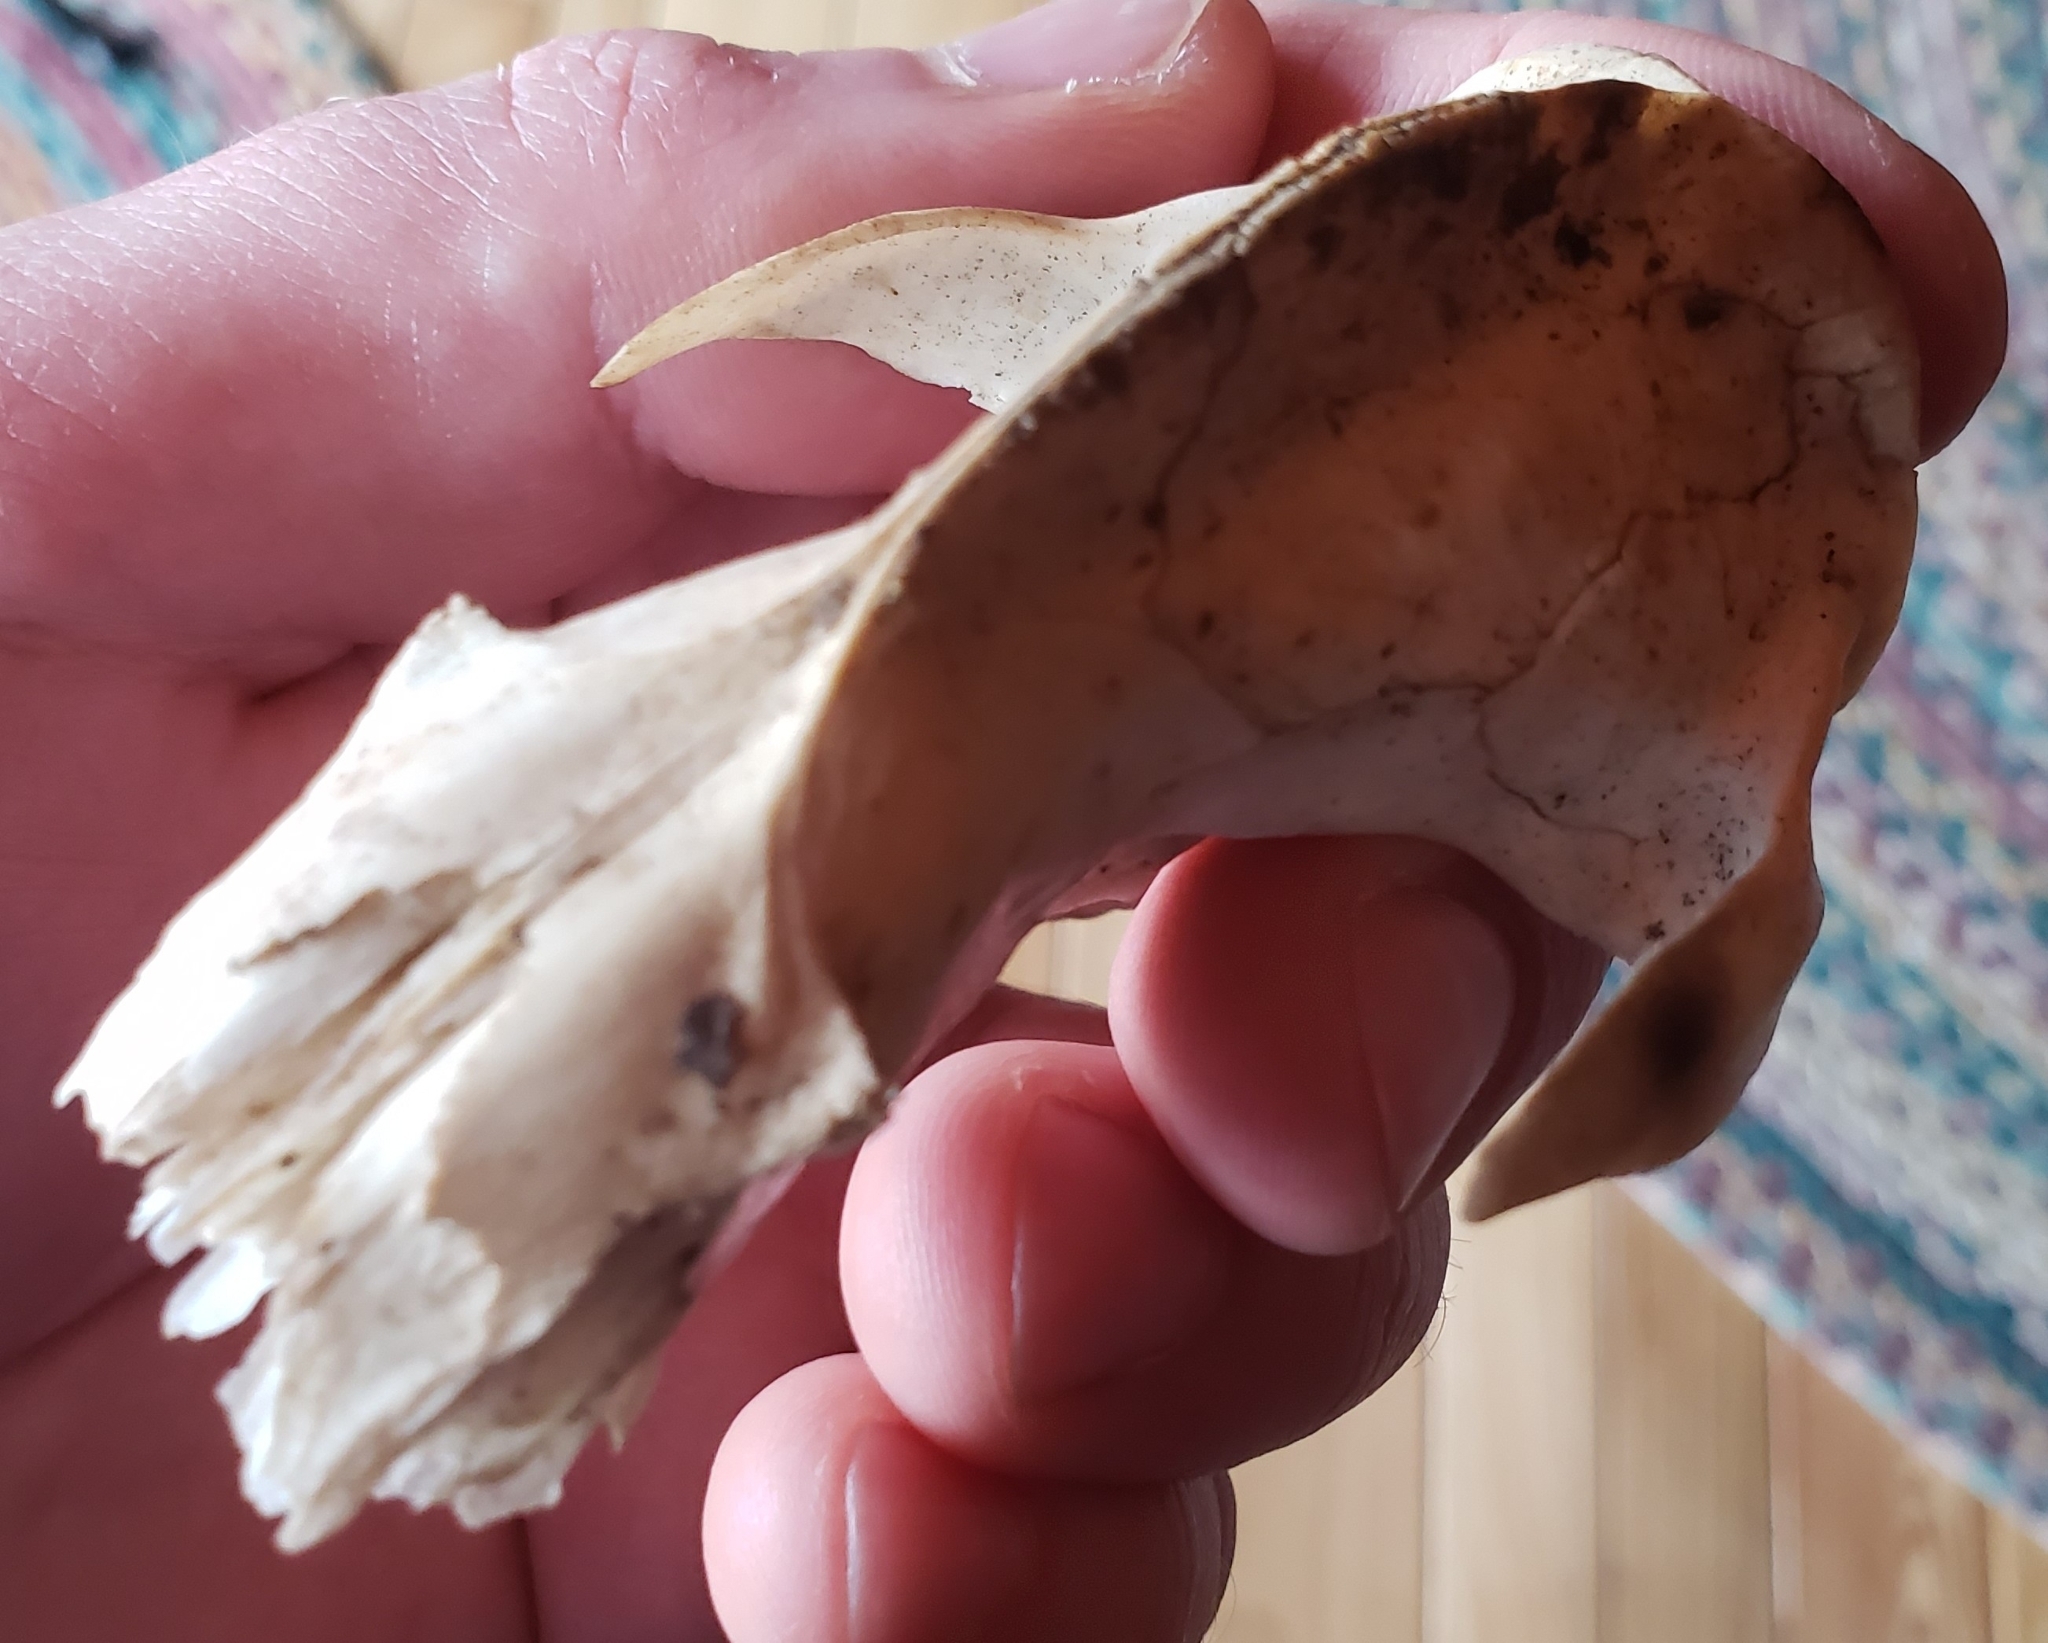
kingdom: Animalia
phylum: Chordata
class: Mammalia
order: Didelphimorphia
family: Didelphidae
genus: Didelphis
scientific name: Didelphis virginiana
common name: Virginia opossum
